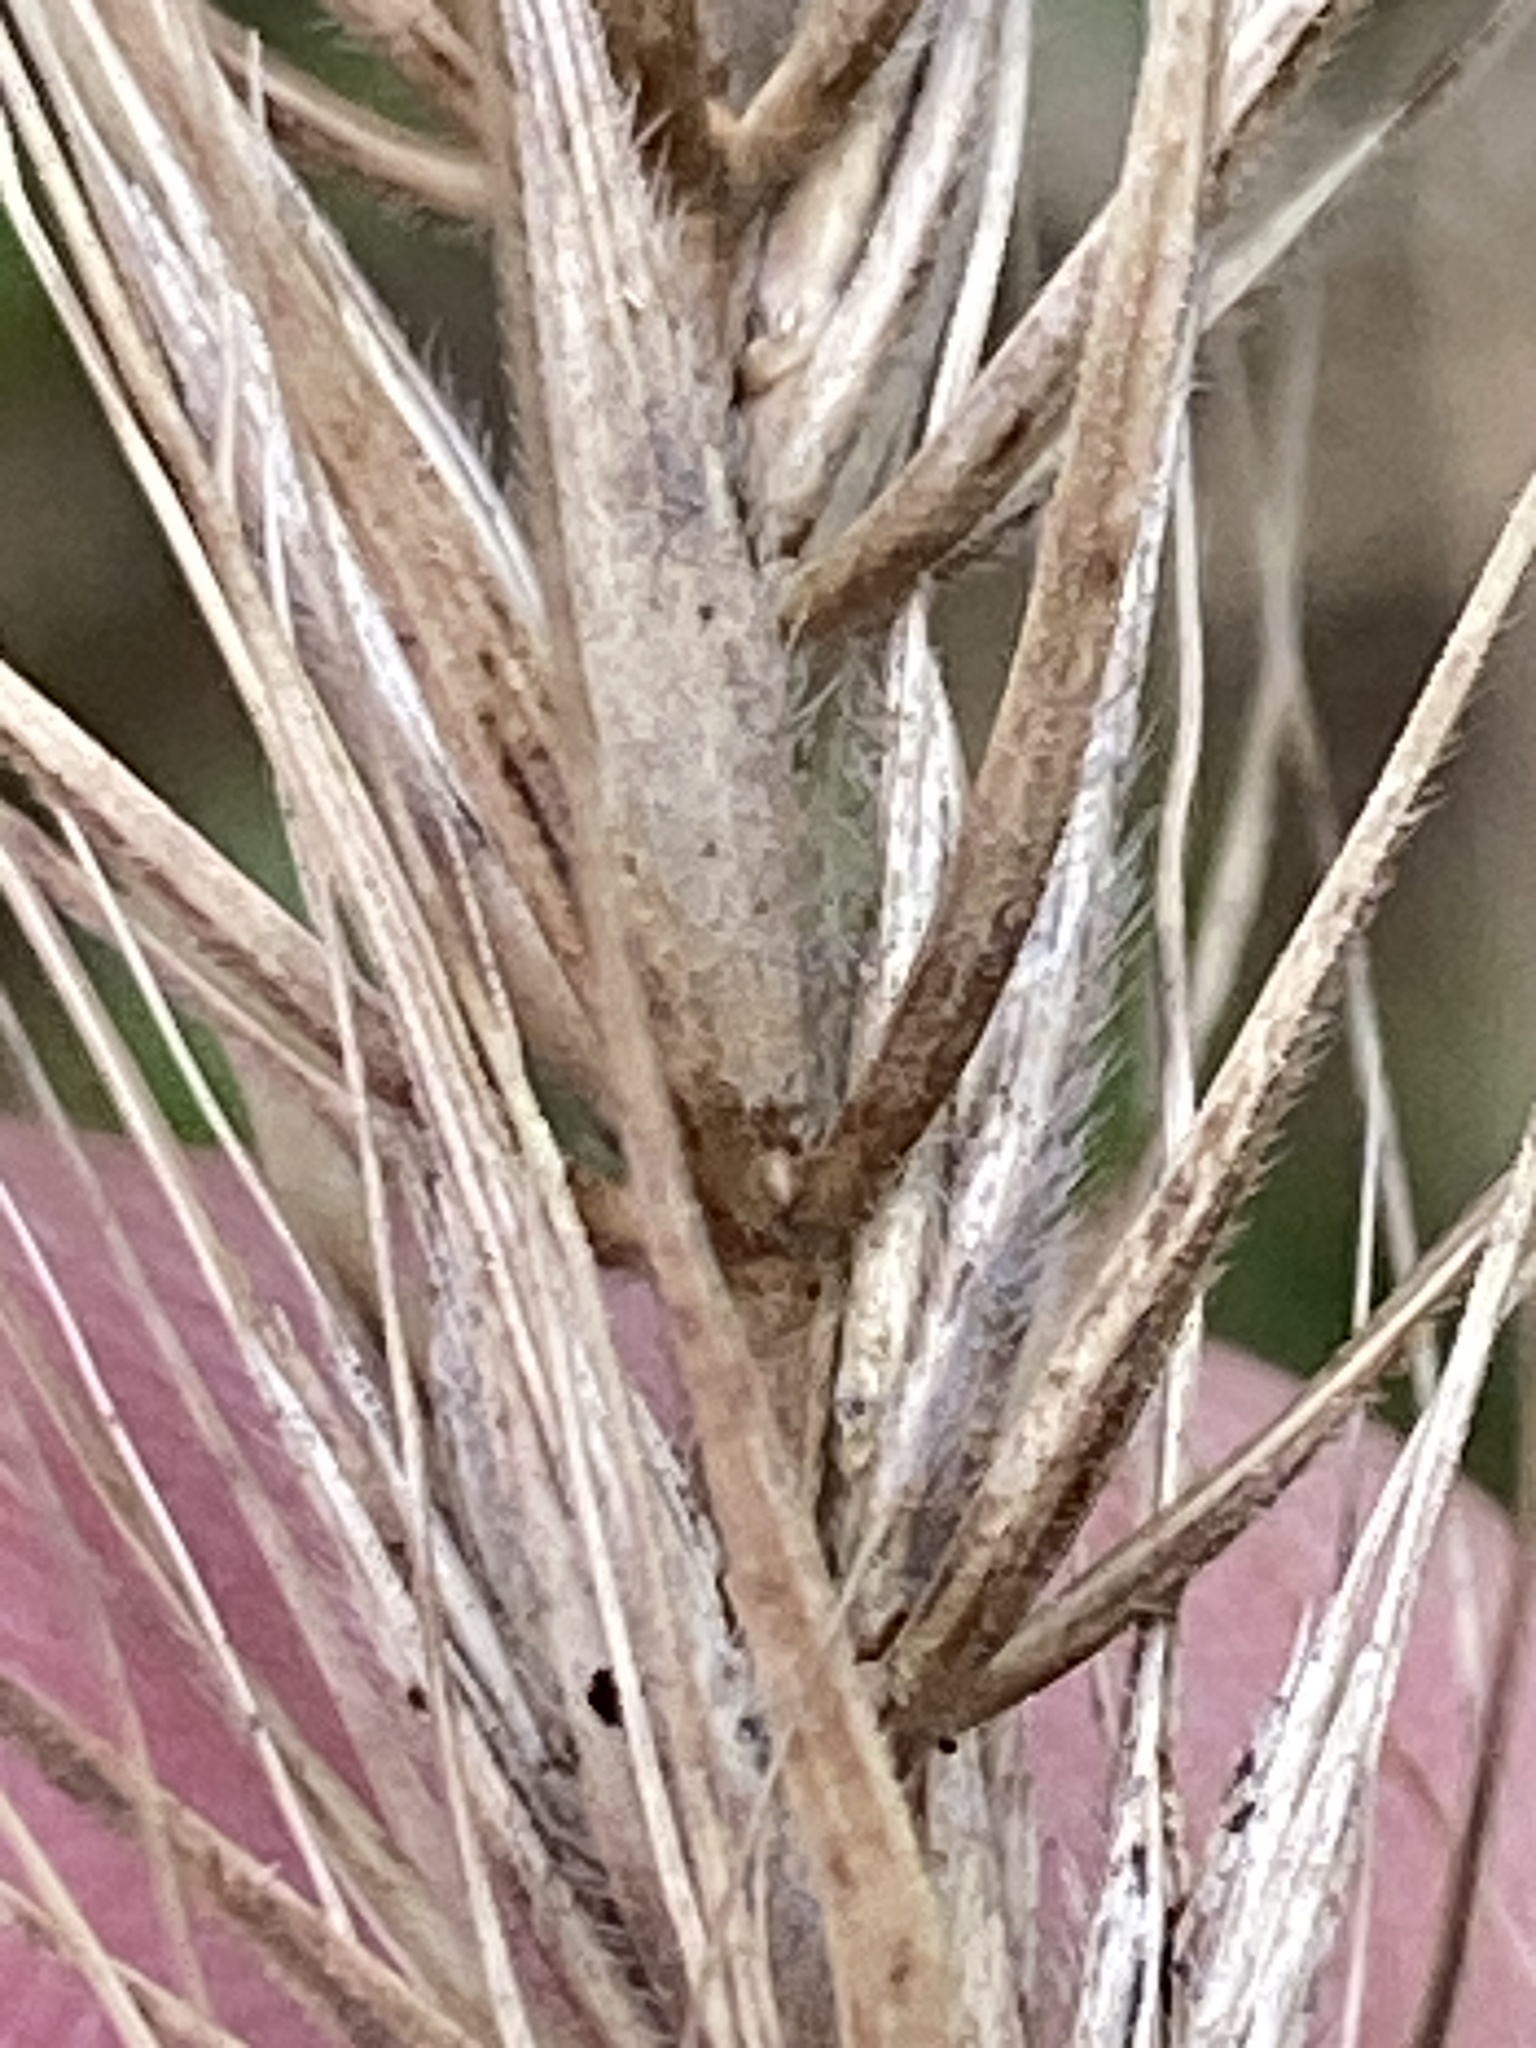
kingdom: Plantae
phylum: Tracheophyta
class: Liliopsida
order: Poales
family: Poaceae
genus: Elymus
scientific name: Elymus canadensis
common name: Canada wild rye
